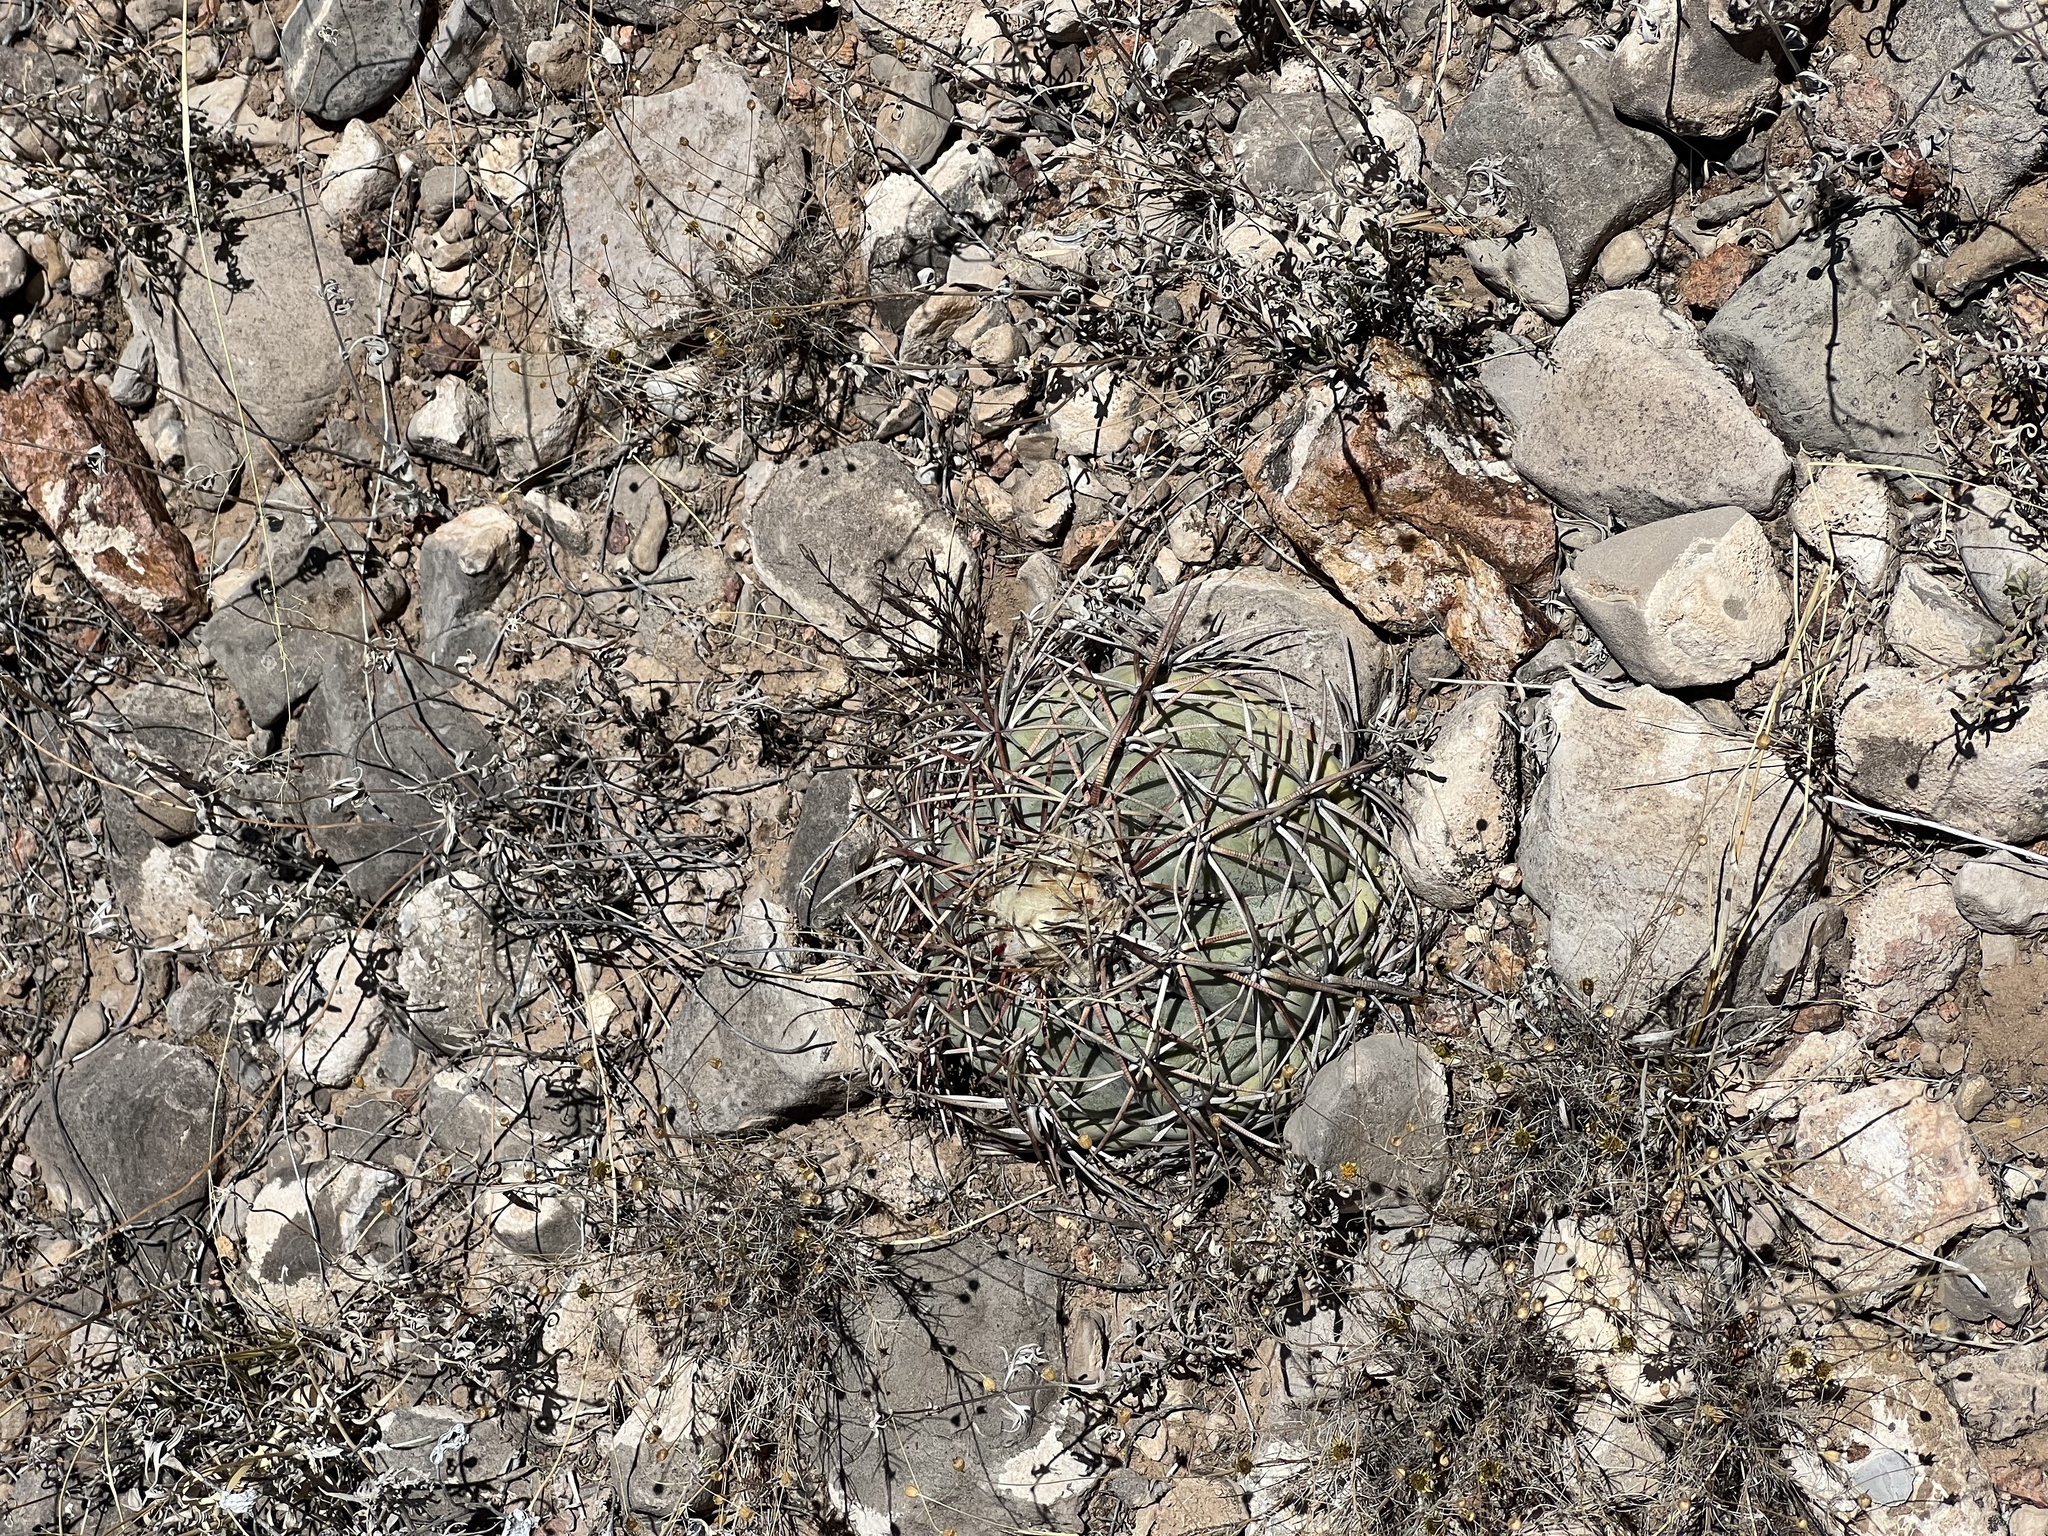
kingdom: Plantae
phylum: Tracheophyta
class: Magnoliopsida
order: Caryophyllales
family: Cactaceae
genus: Echinocactus
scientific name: Echinocactus horizonthalonius
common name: Devilshead
